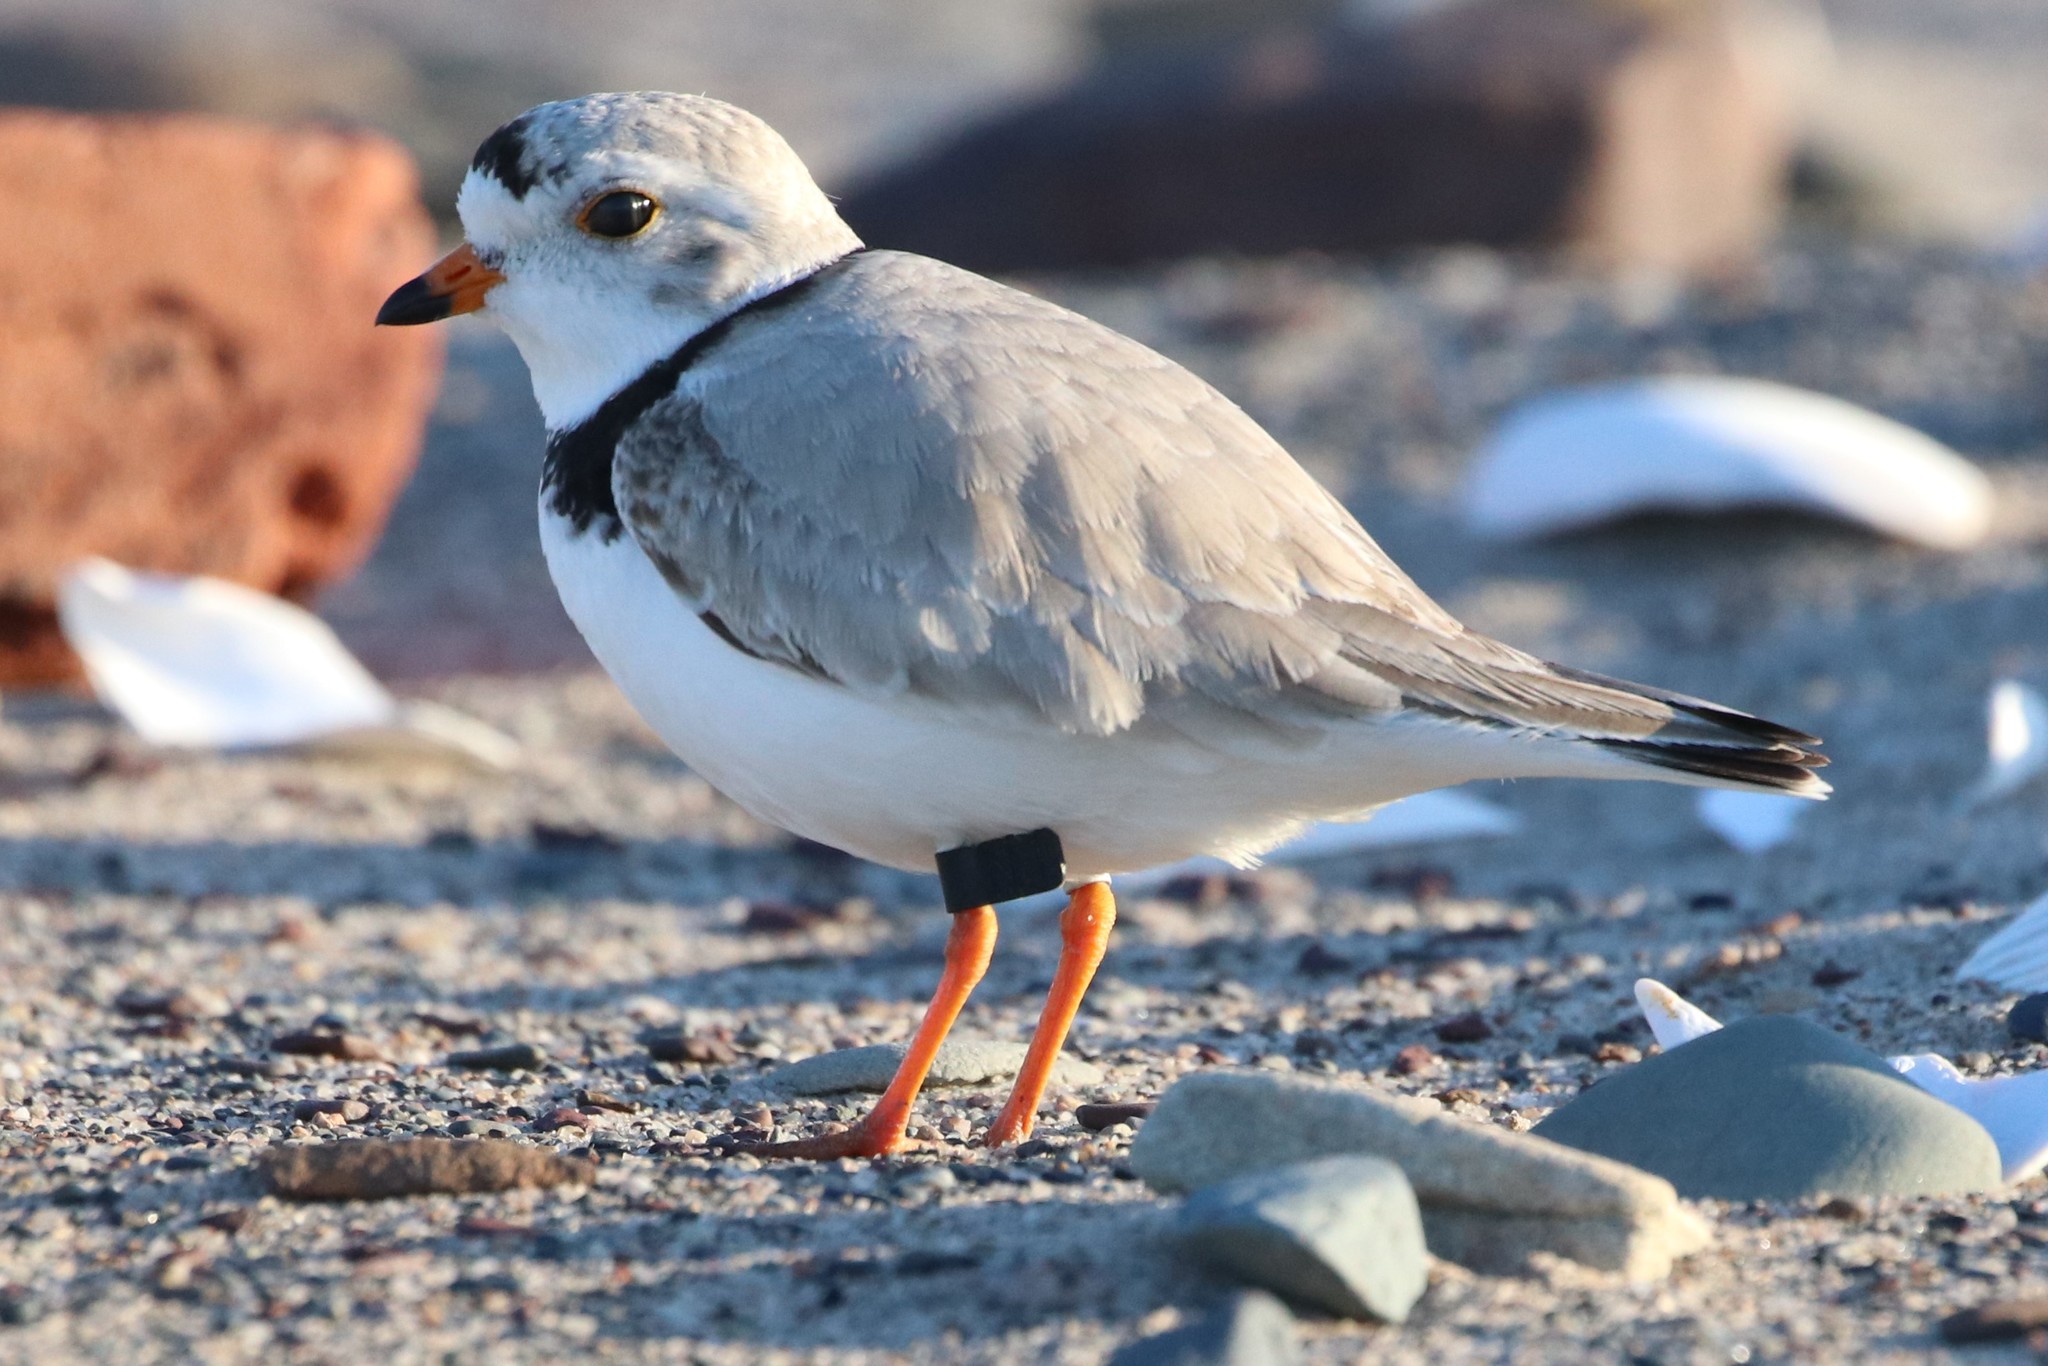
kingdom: Animalia
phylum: Chordata
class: Aves
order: Charadriiformes
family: Charadriidae
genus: Charadrius
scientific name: Charadrius melodus
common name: Piping plover
